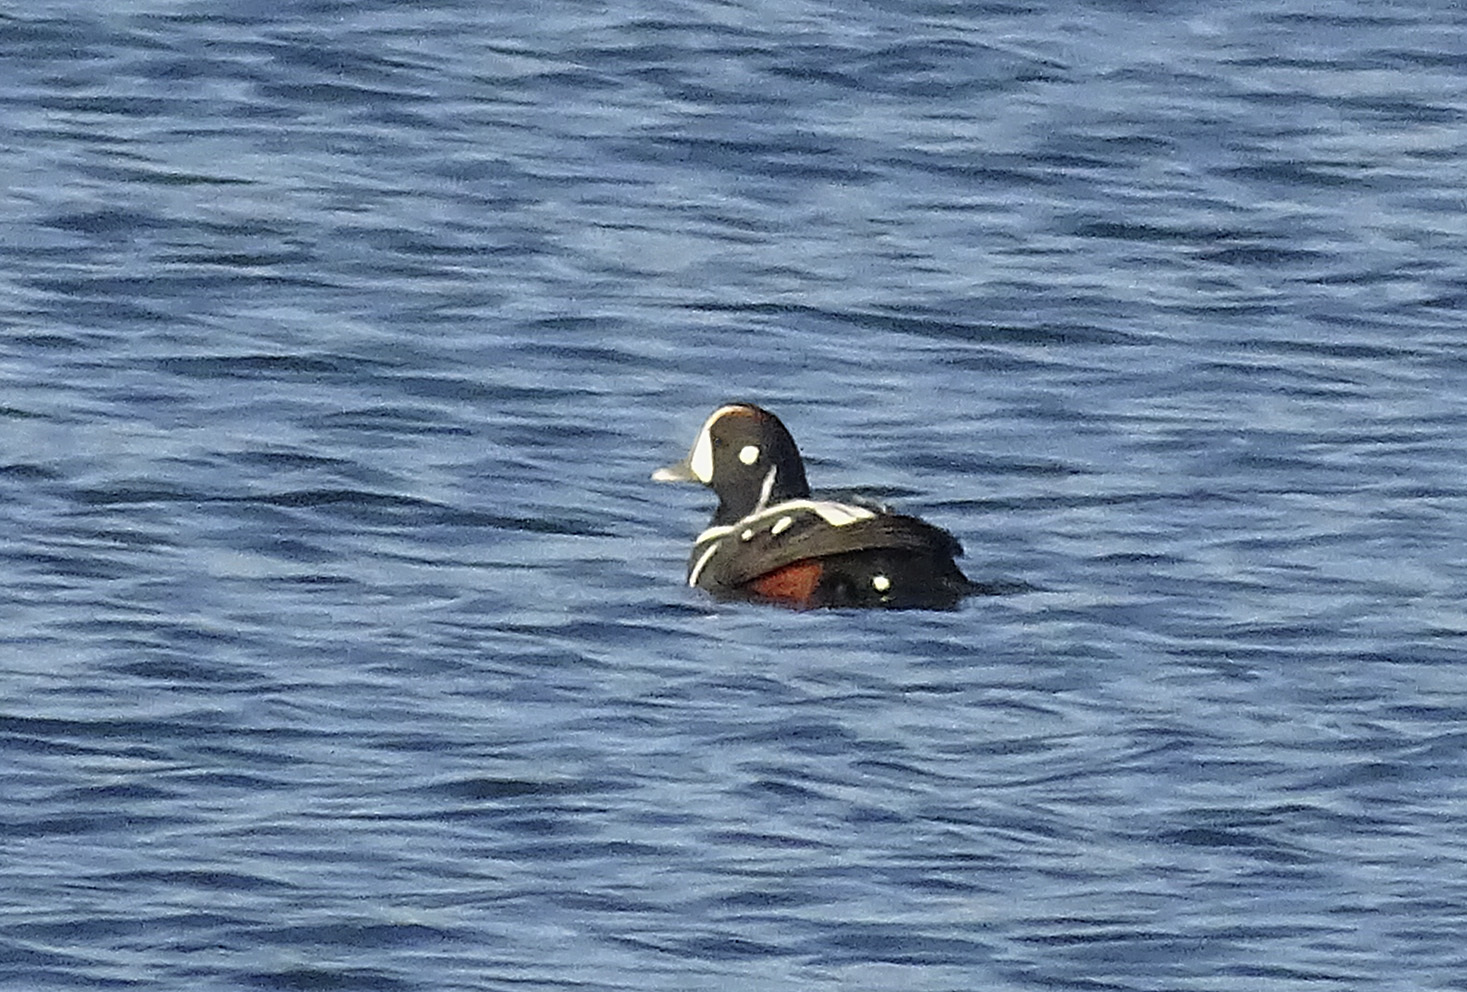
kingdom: Animalia
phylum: Chordata
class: Aves
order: Anseriformes
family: Anatidae
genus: Histrionicus
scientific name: Histrionicus histrionicus
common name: Harlequin duck
